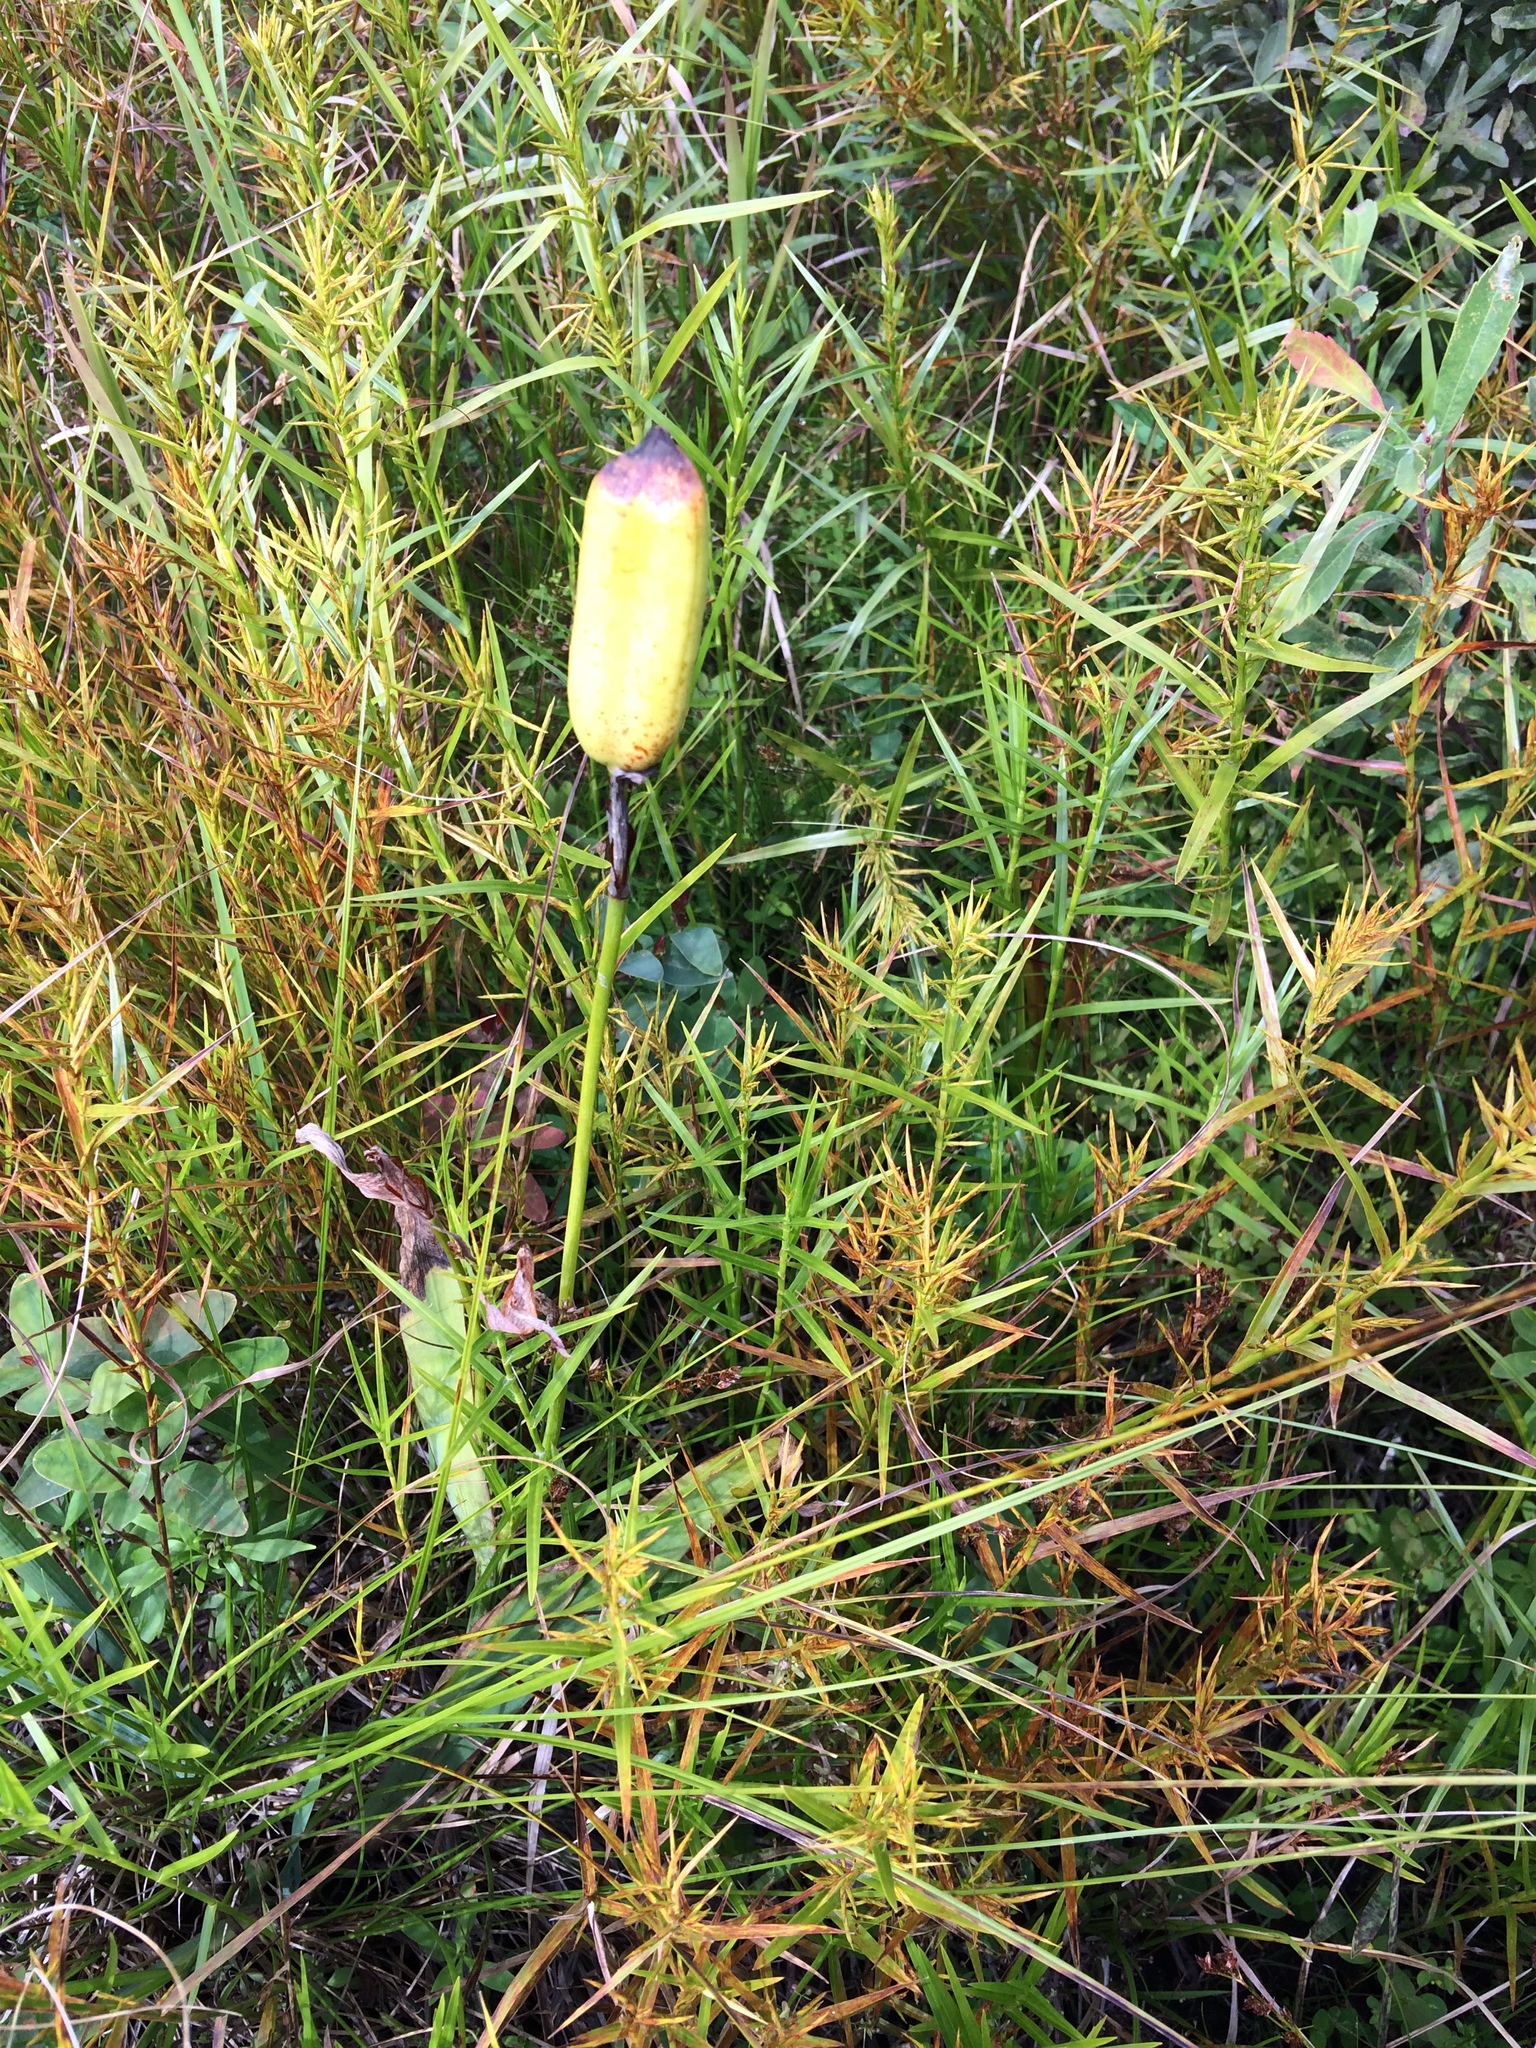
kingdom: Plantae
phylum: Tracheophyta
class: Liliopsida
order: Asparagales
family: Iridaceae
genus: Iris
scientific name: Iris versicolor
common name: Purple iris
